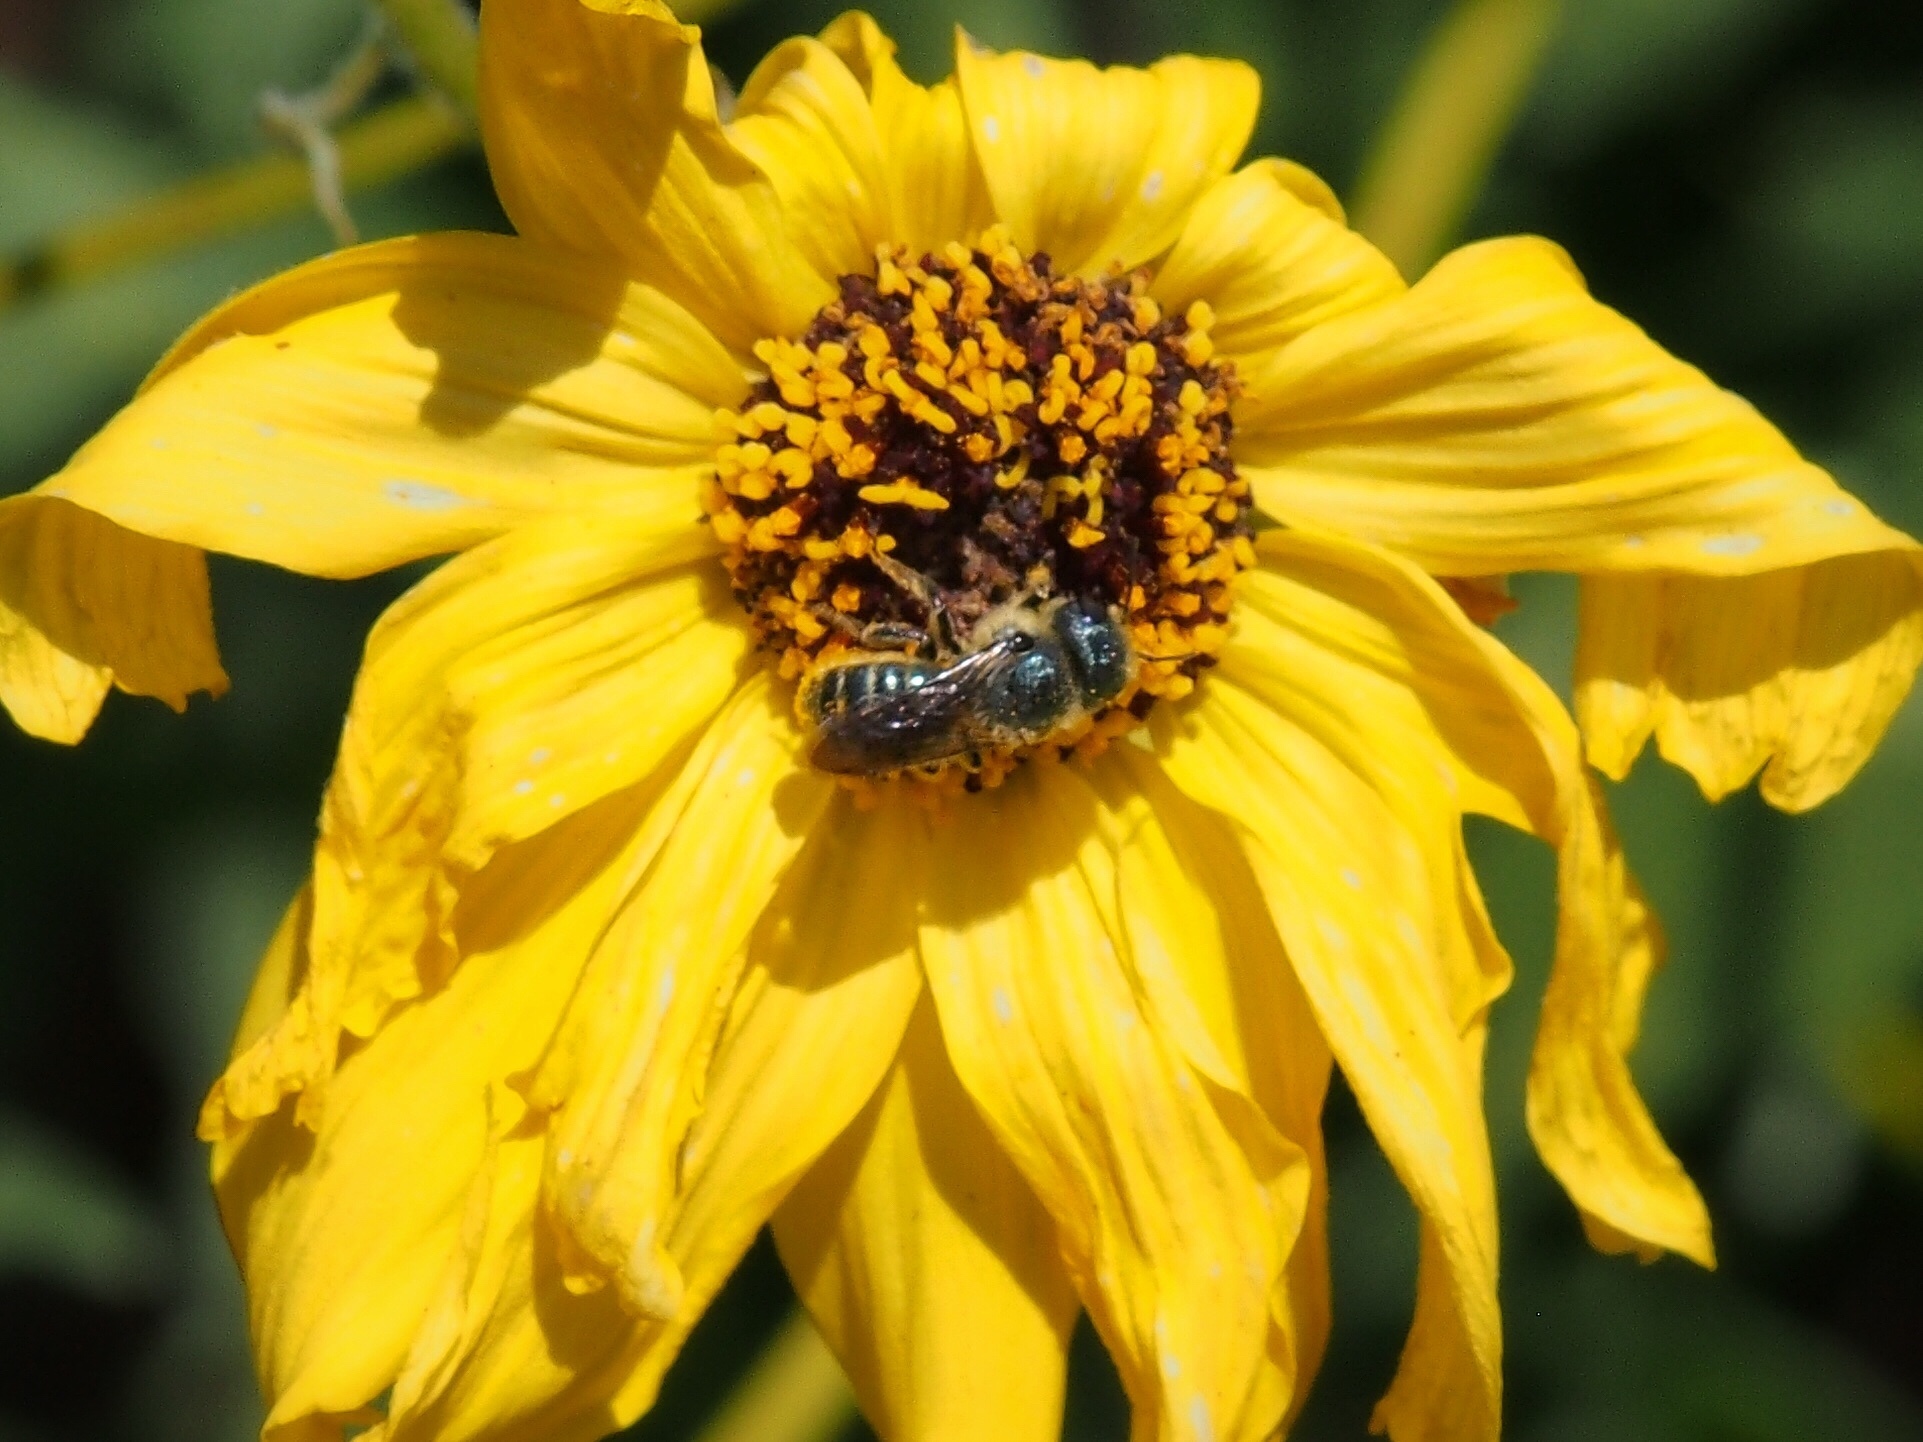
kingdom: Animalia
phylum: Arthropoda
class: Insecta
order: Hymenoptera
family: Megachilidae
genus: Osmia
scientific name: Osmia coloradensis
